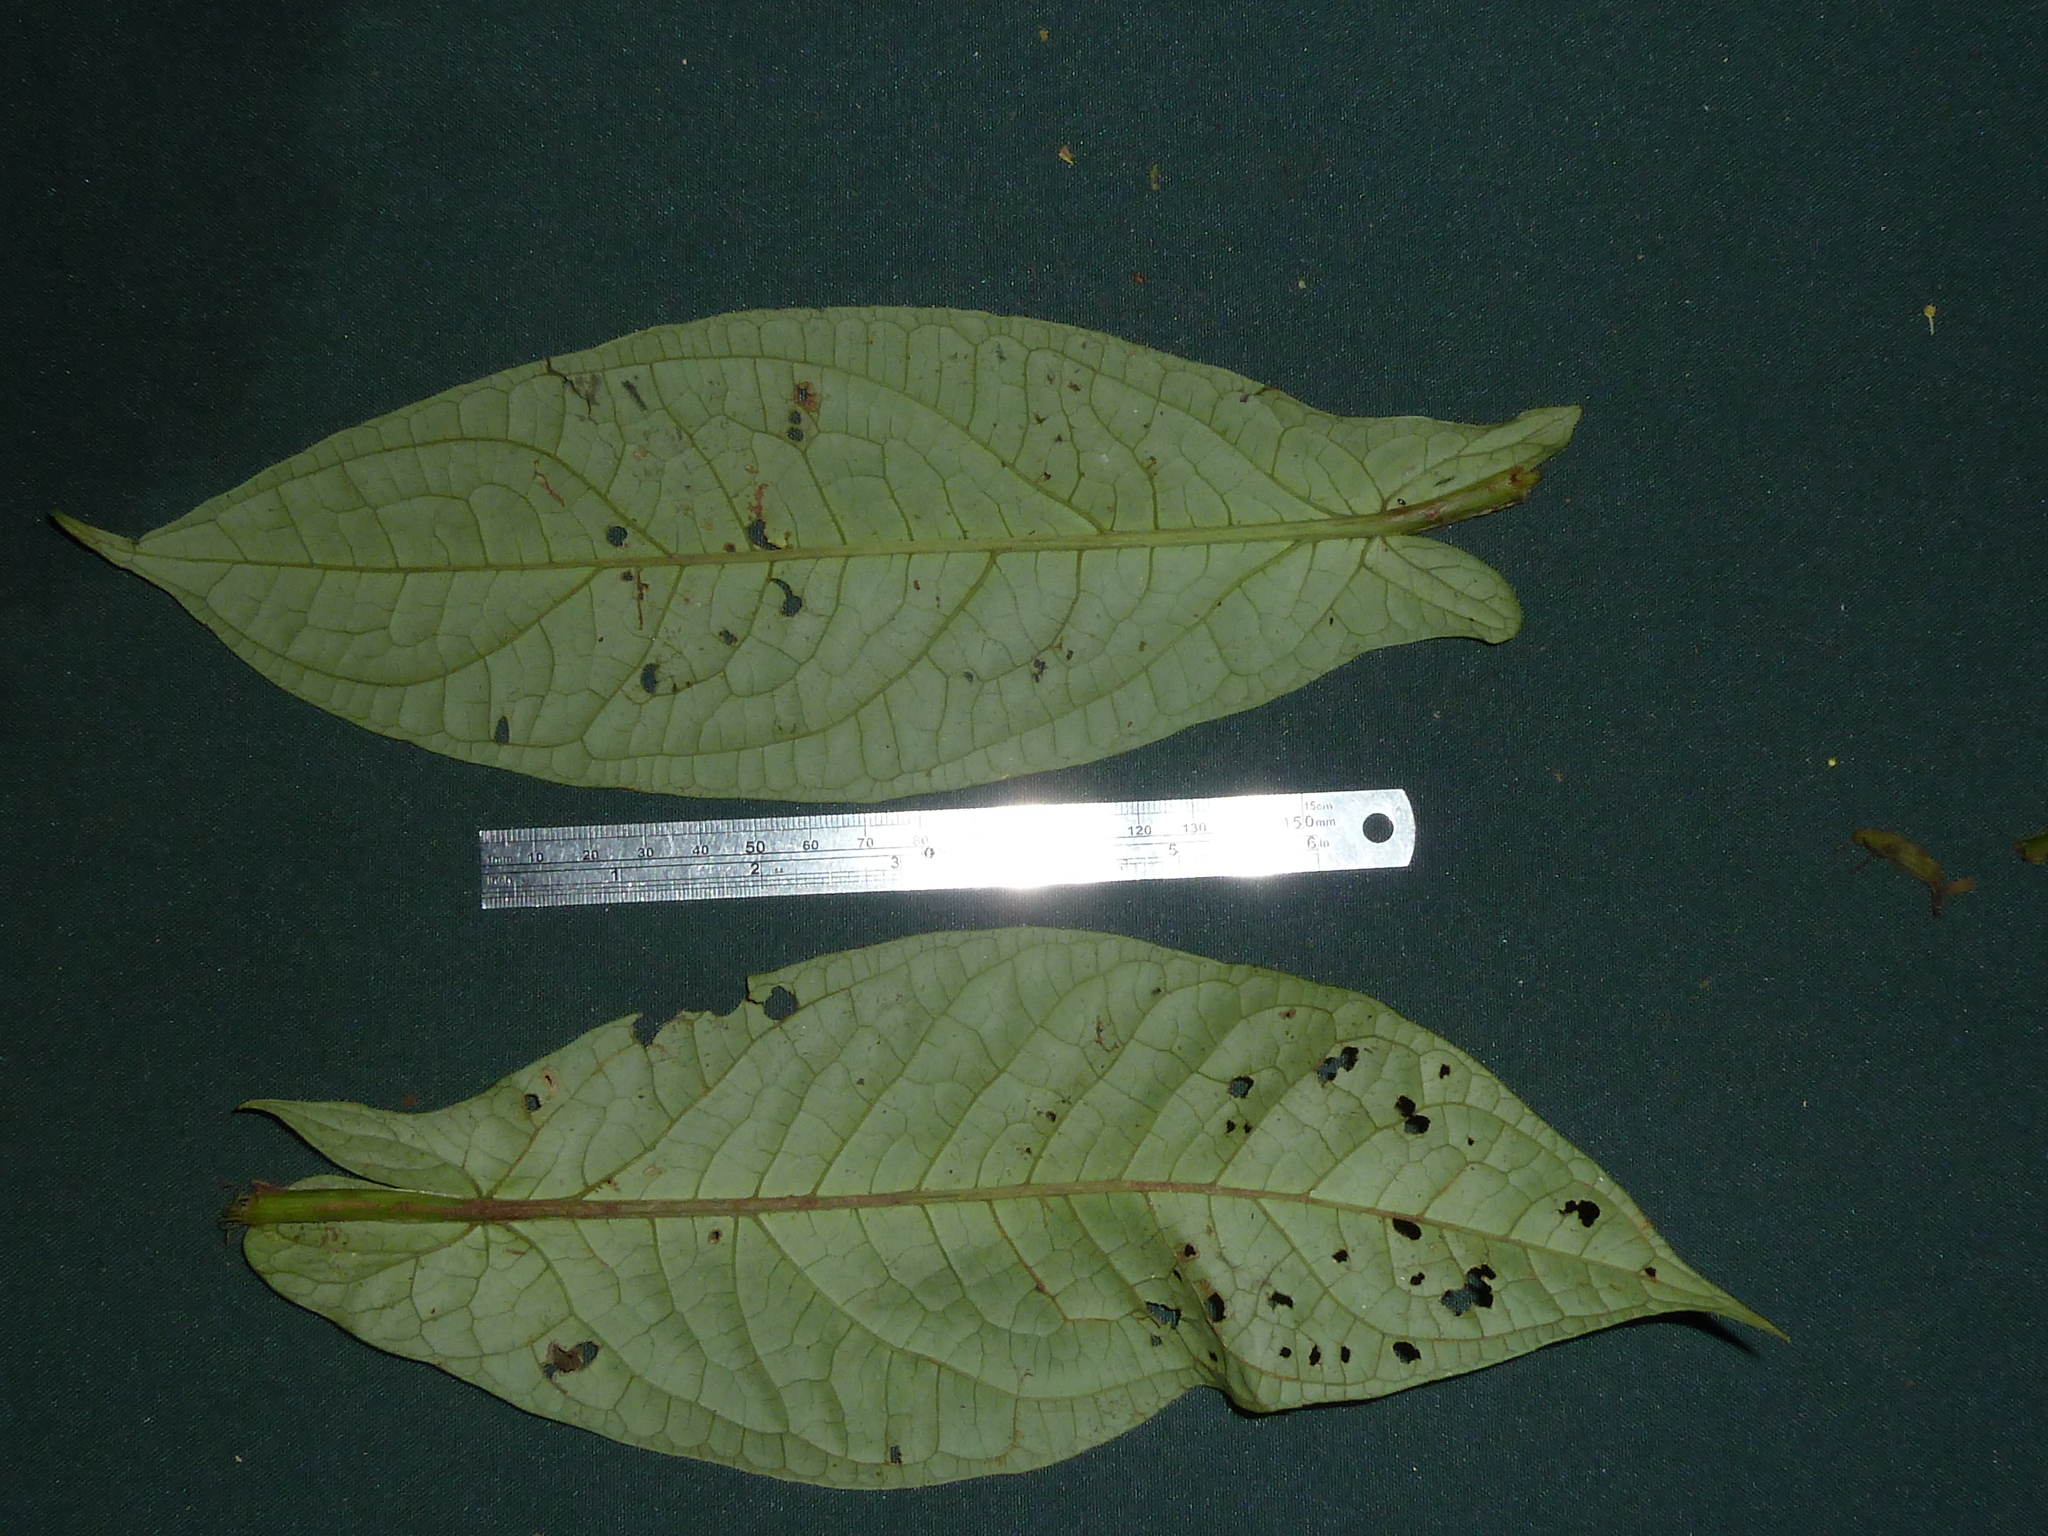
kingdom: Plantae
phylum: Tracheophyta
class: Magnoliopsida
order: Piperales
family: Piperaceae
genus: Piper
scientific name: Piper sagittifolium
